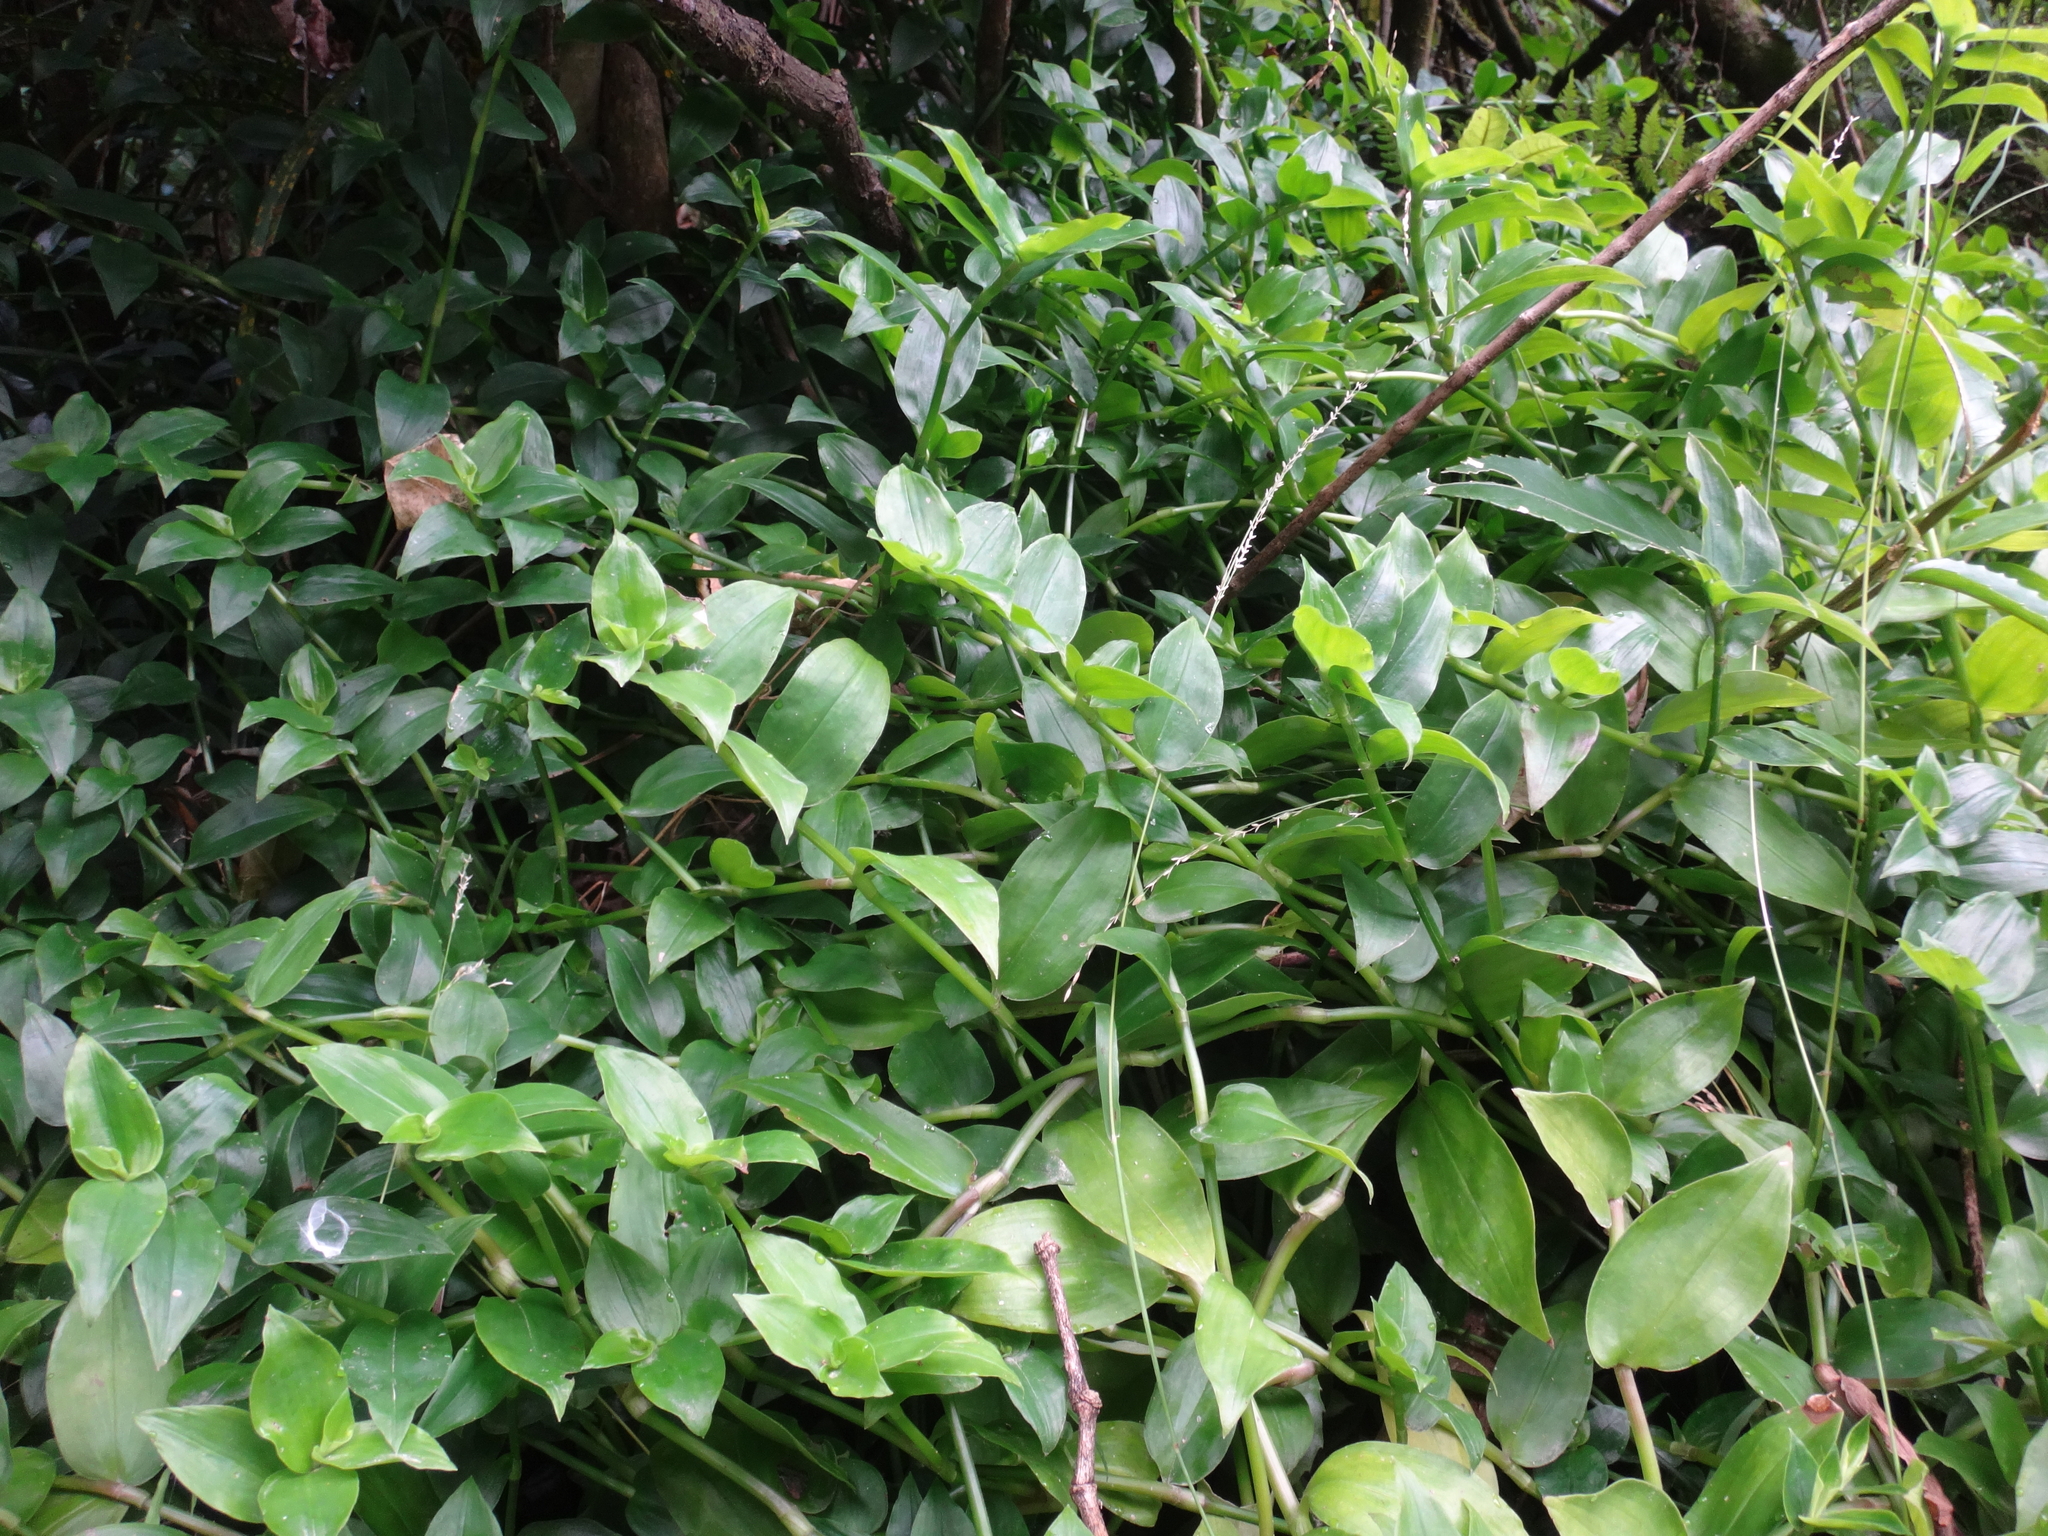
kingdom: Plantae
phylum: Tracheophyta
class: Liliopsida
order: Commelinales
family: Commelinaceae
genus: Tradescantia
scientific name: Tradescantia fluminensis
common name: Wandering-jew
